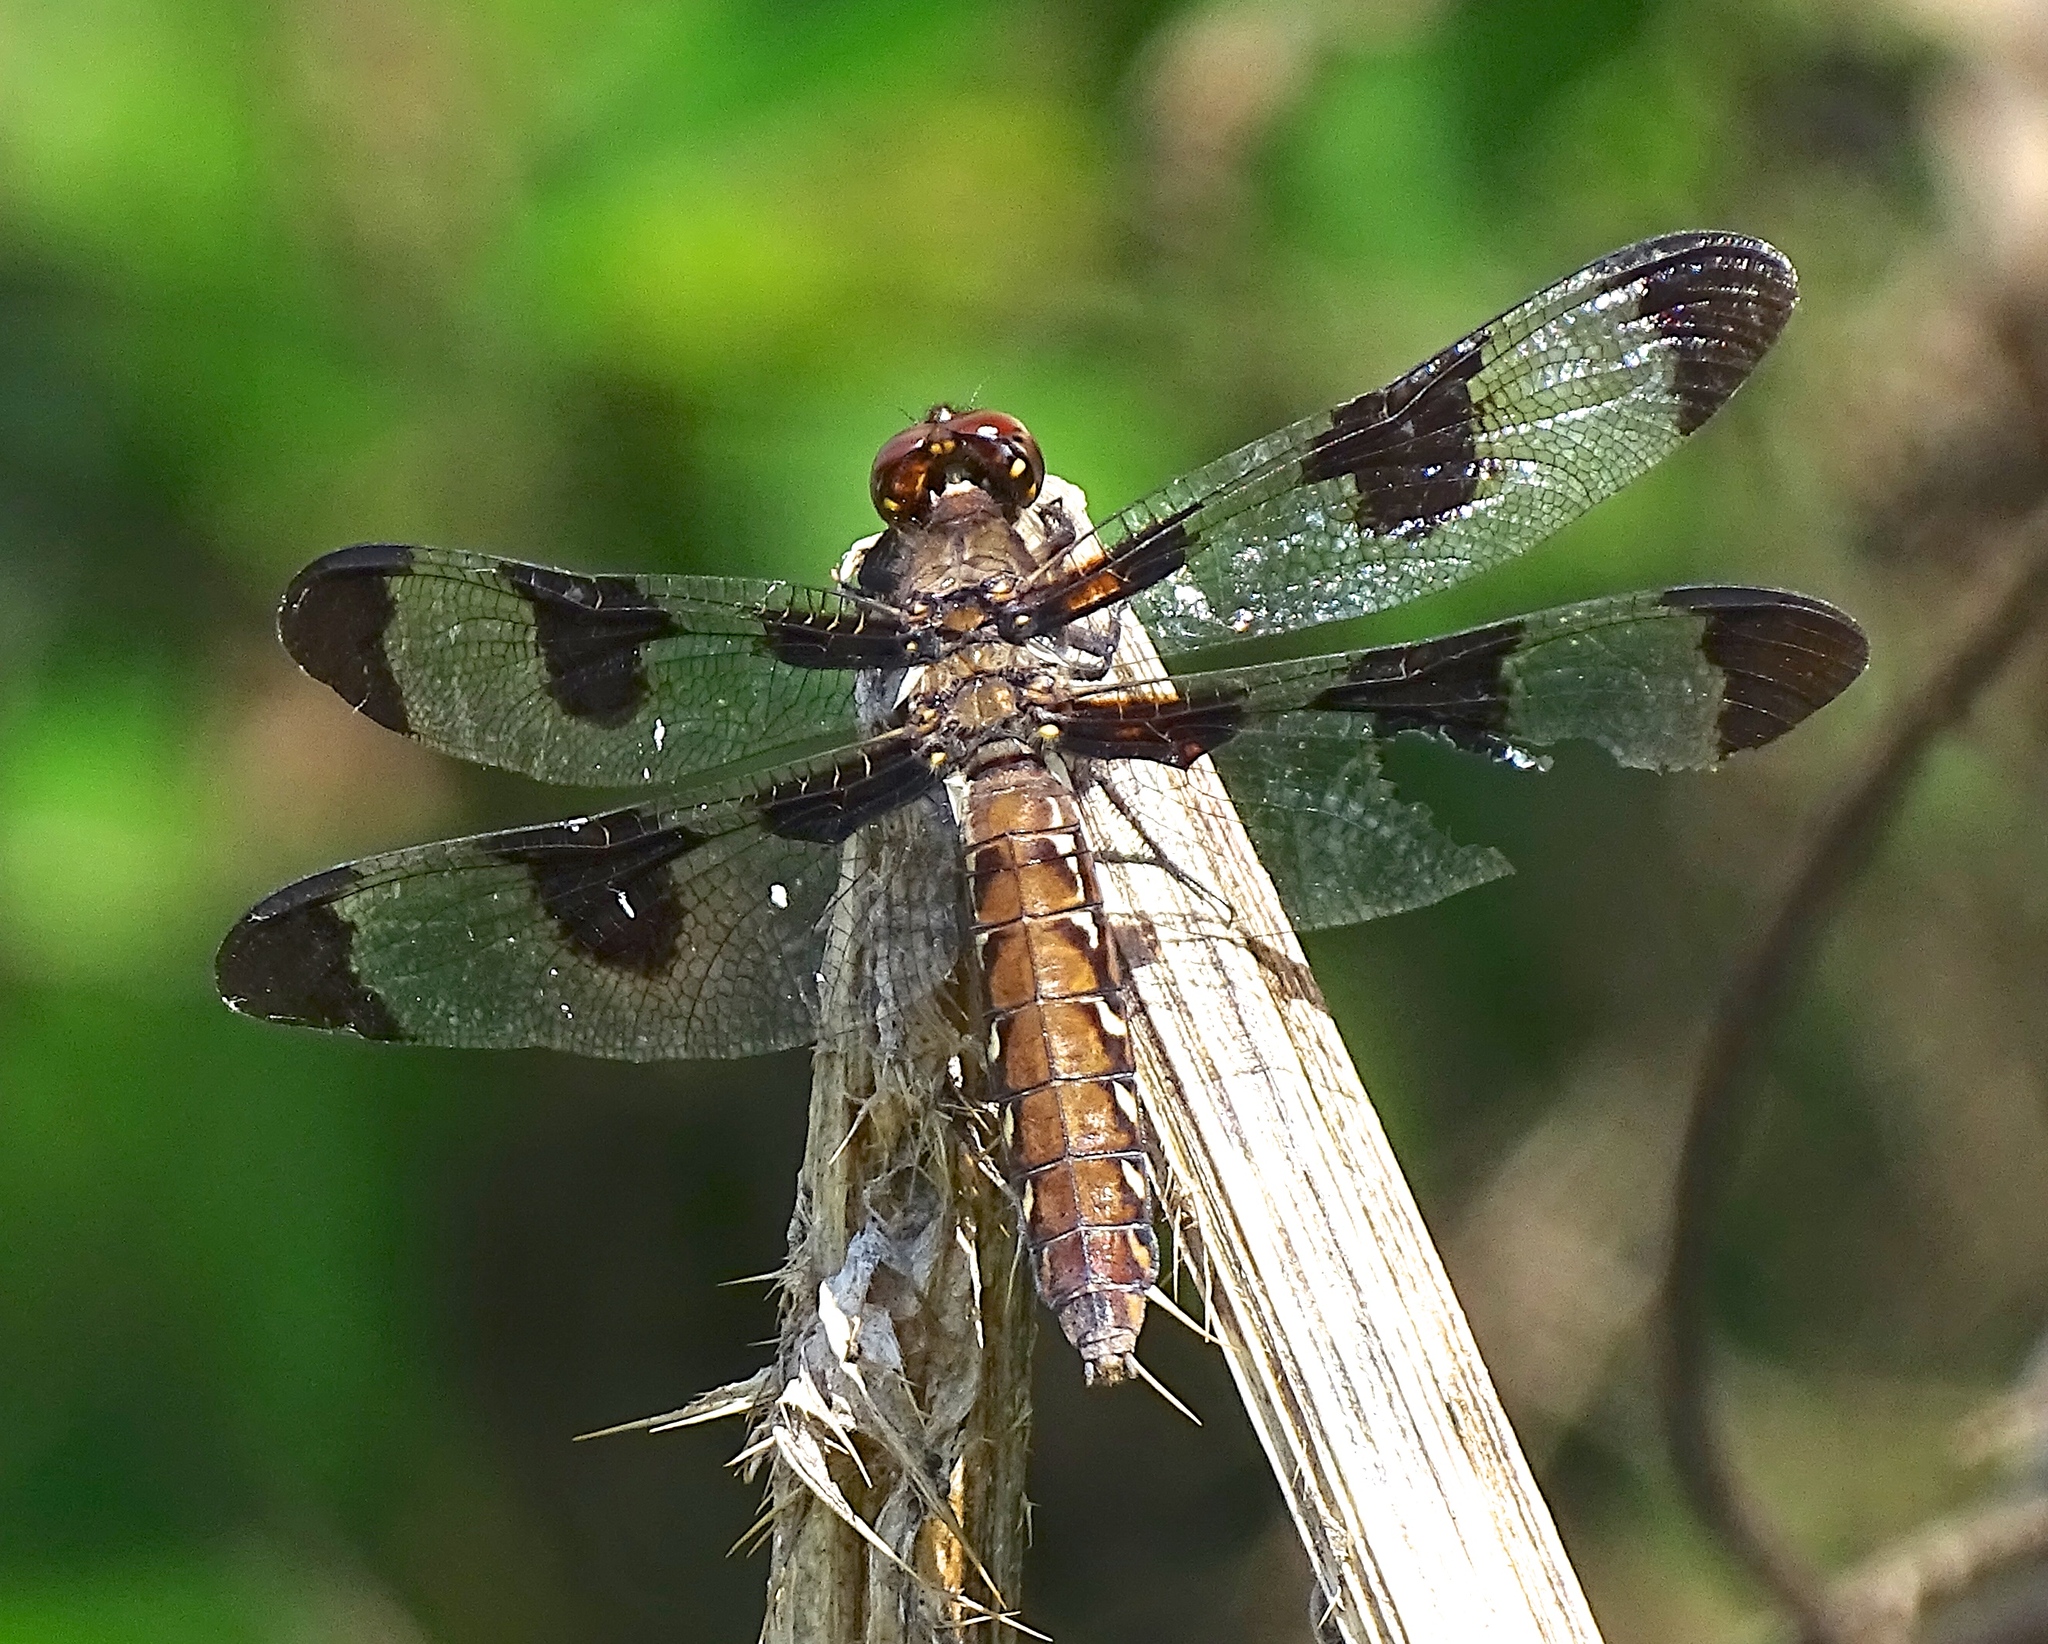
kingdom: Animalia
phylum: Arthropoda
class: Insecta
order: Odonata
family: Libellulidae
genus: Plathemis
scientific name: Plathemis lydia
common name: Common whitetail
